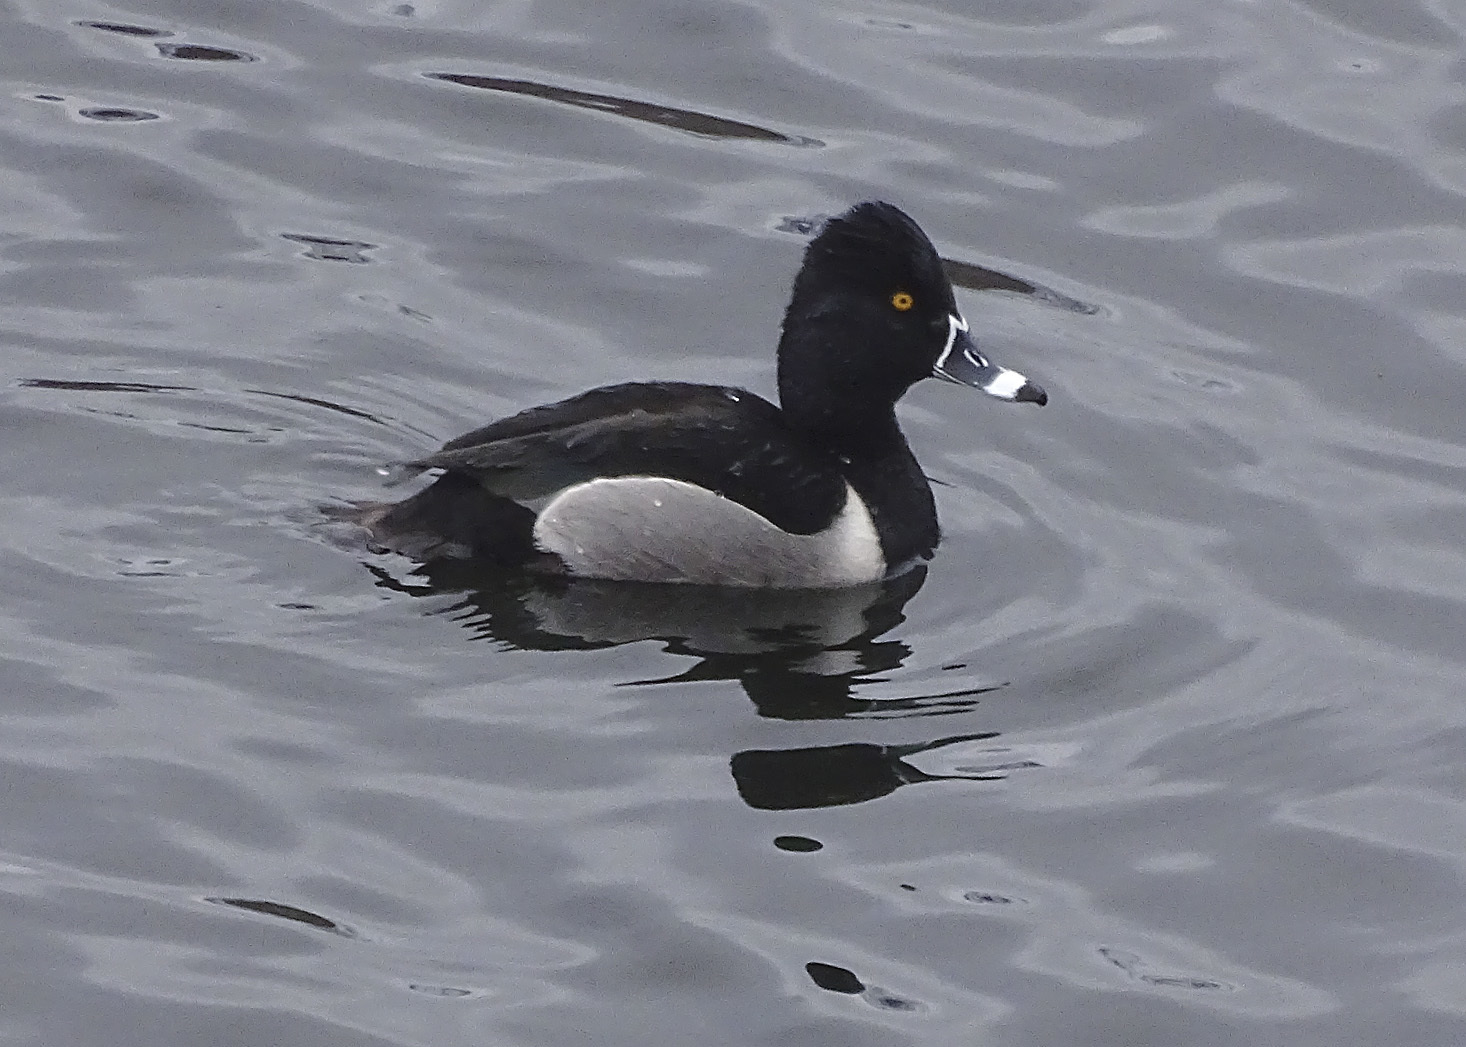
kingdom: Animalia
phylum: Chordata
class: Aves
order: Anseriformes
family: Anatidae
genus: Aythya
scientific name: Aythya collaris
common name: Ring-necked duck
